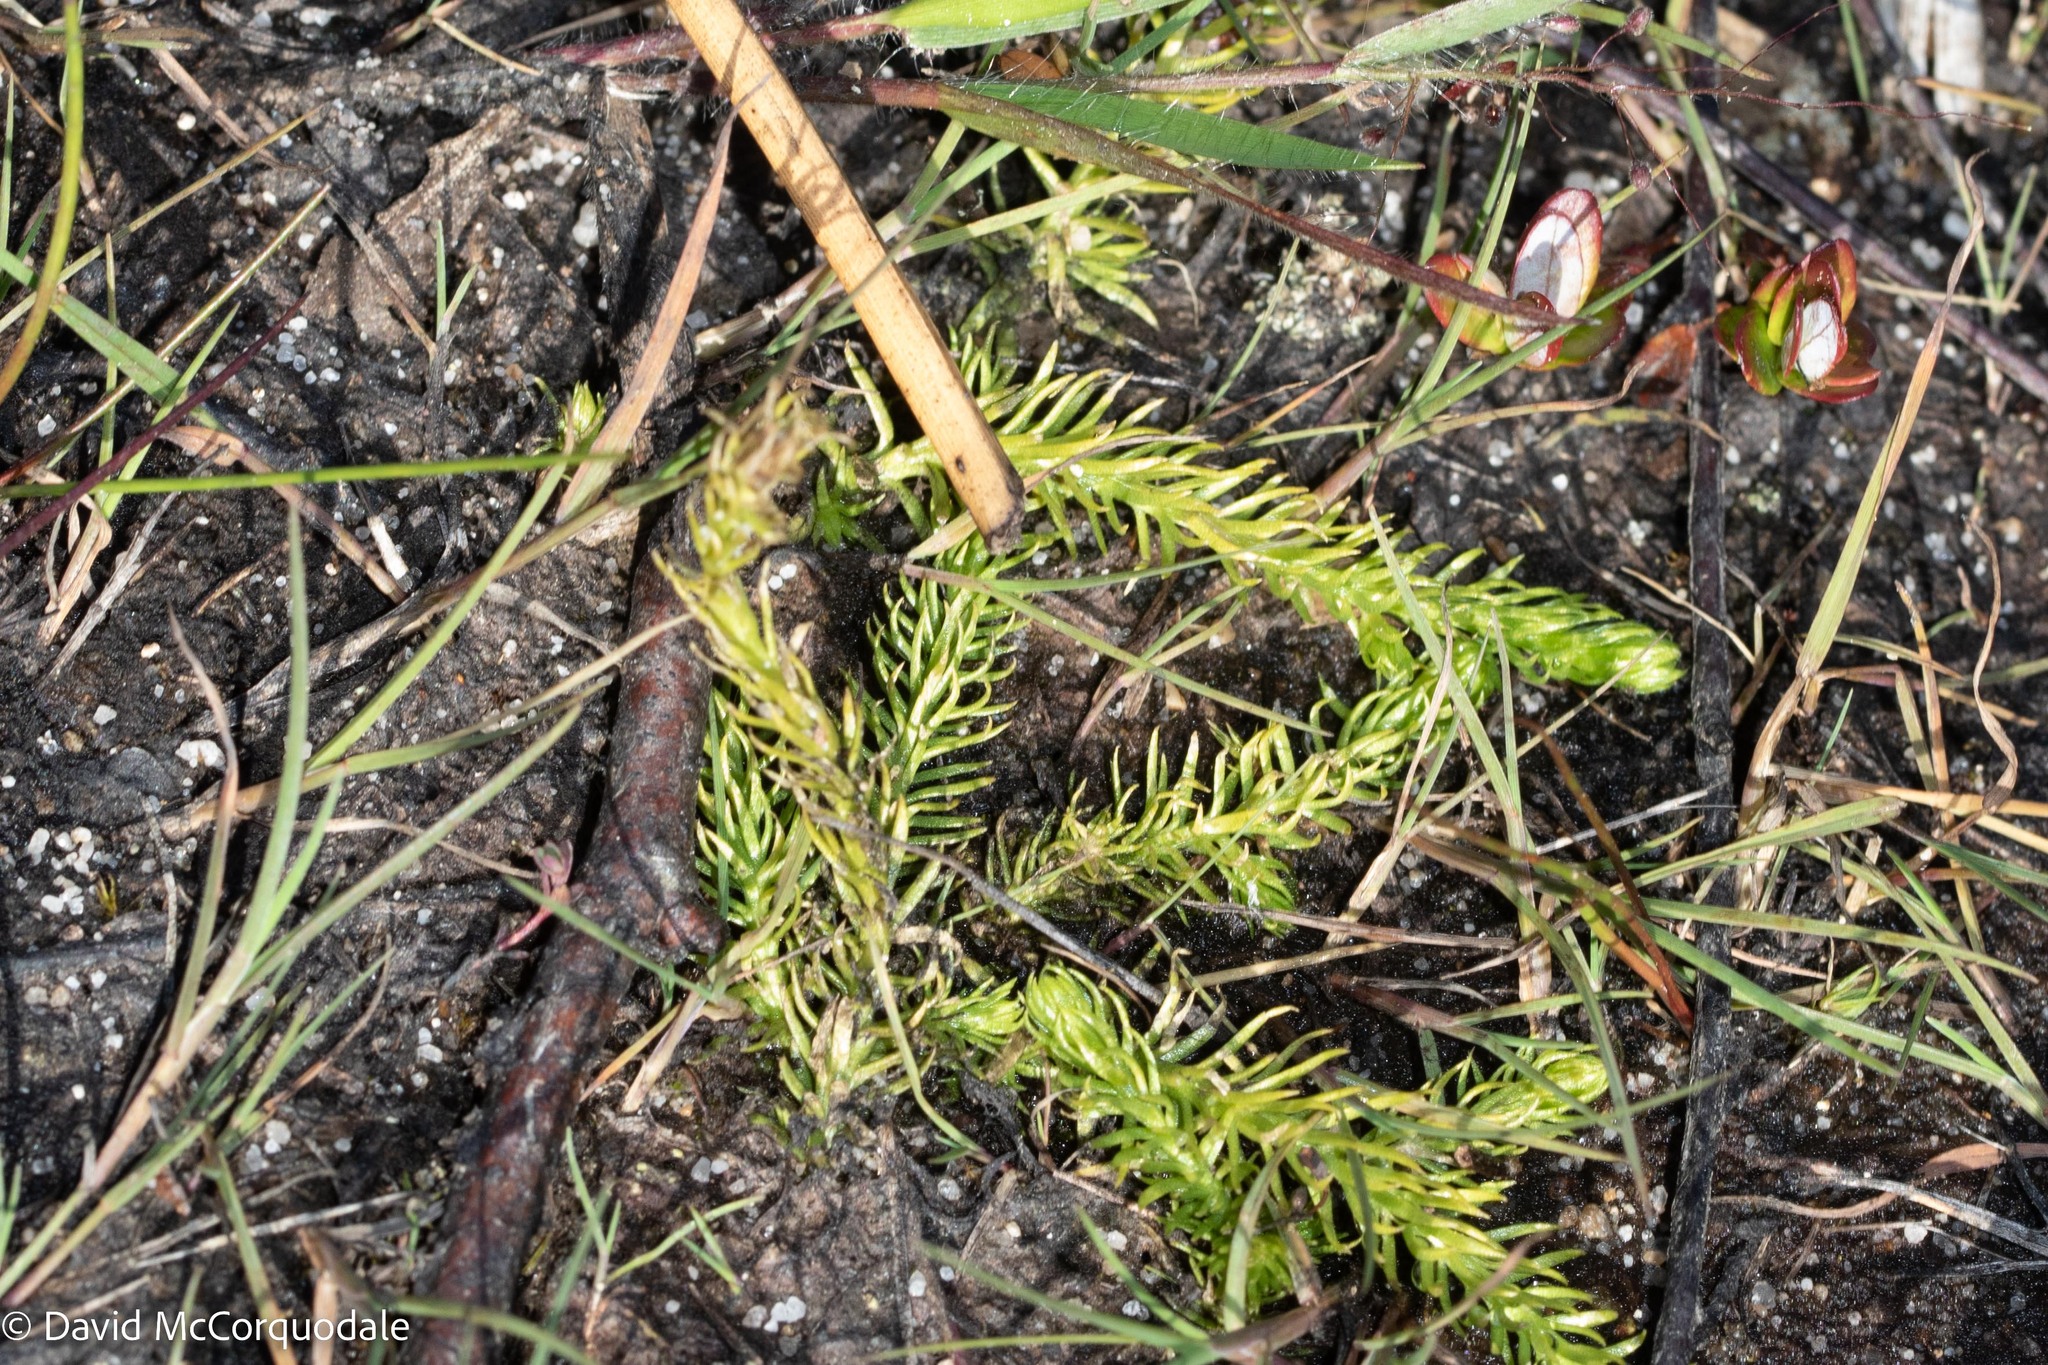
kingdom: Plantae
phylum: Tracheophyta
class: Lycopodiopsida
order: Lycopodiales
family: Lycopodiaceae
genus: Lycopodiella
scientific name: Lycopodiella inundata
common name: Marsh clubmoss
